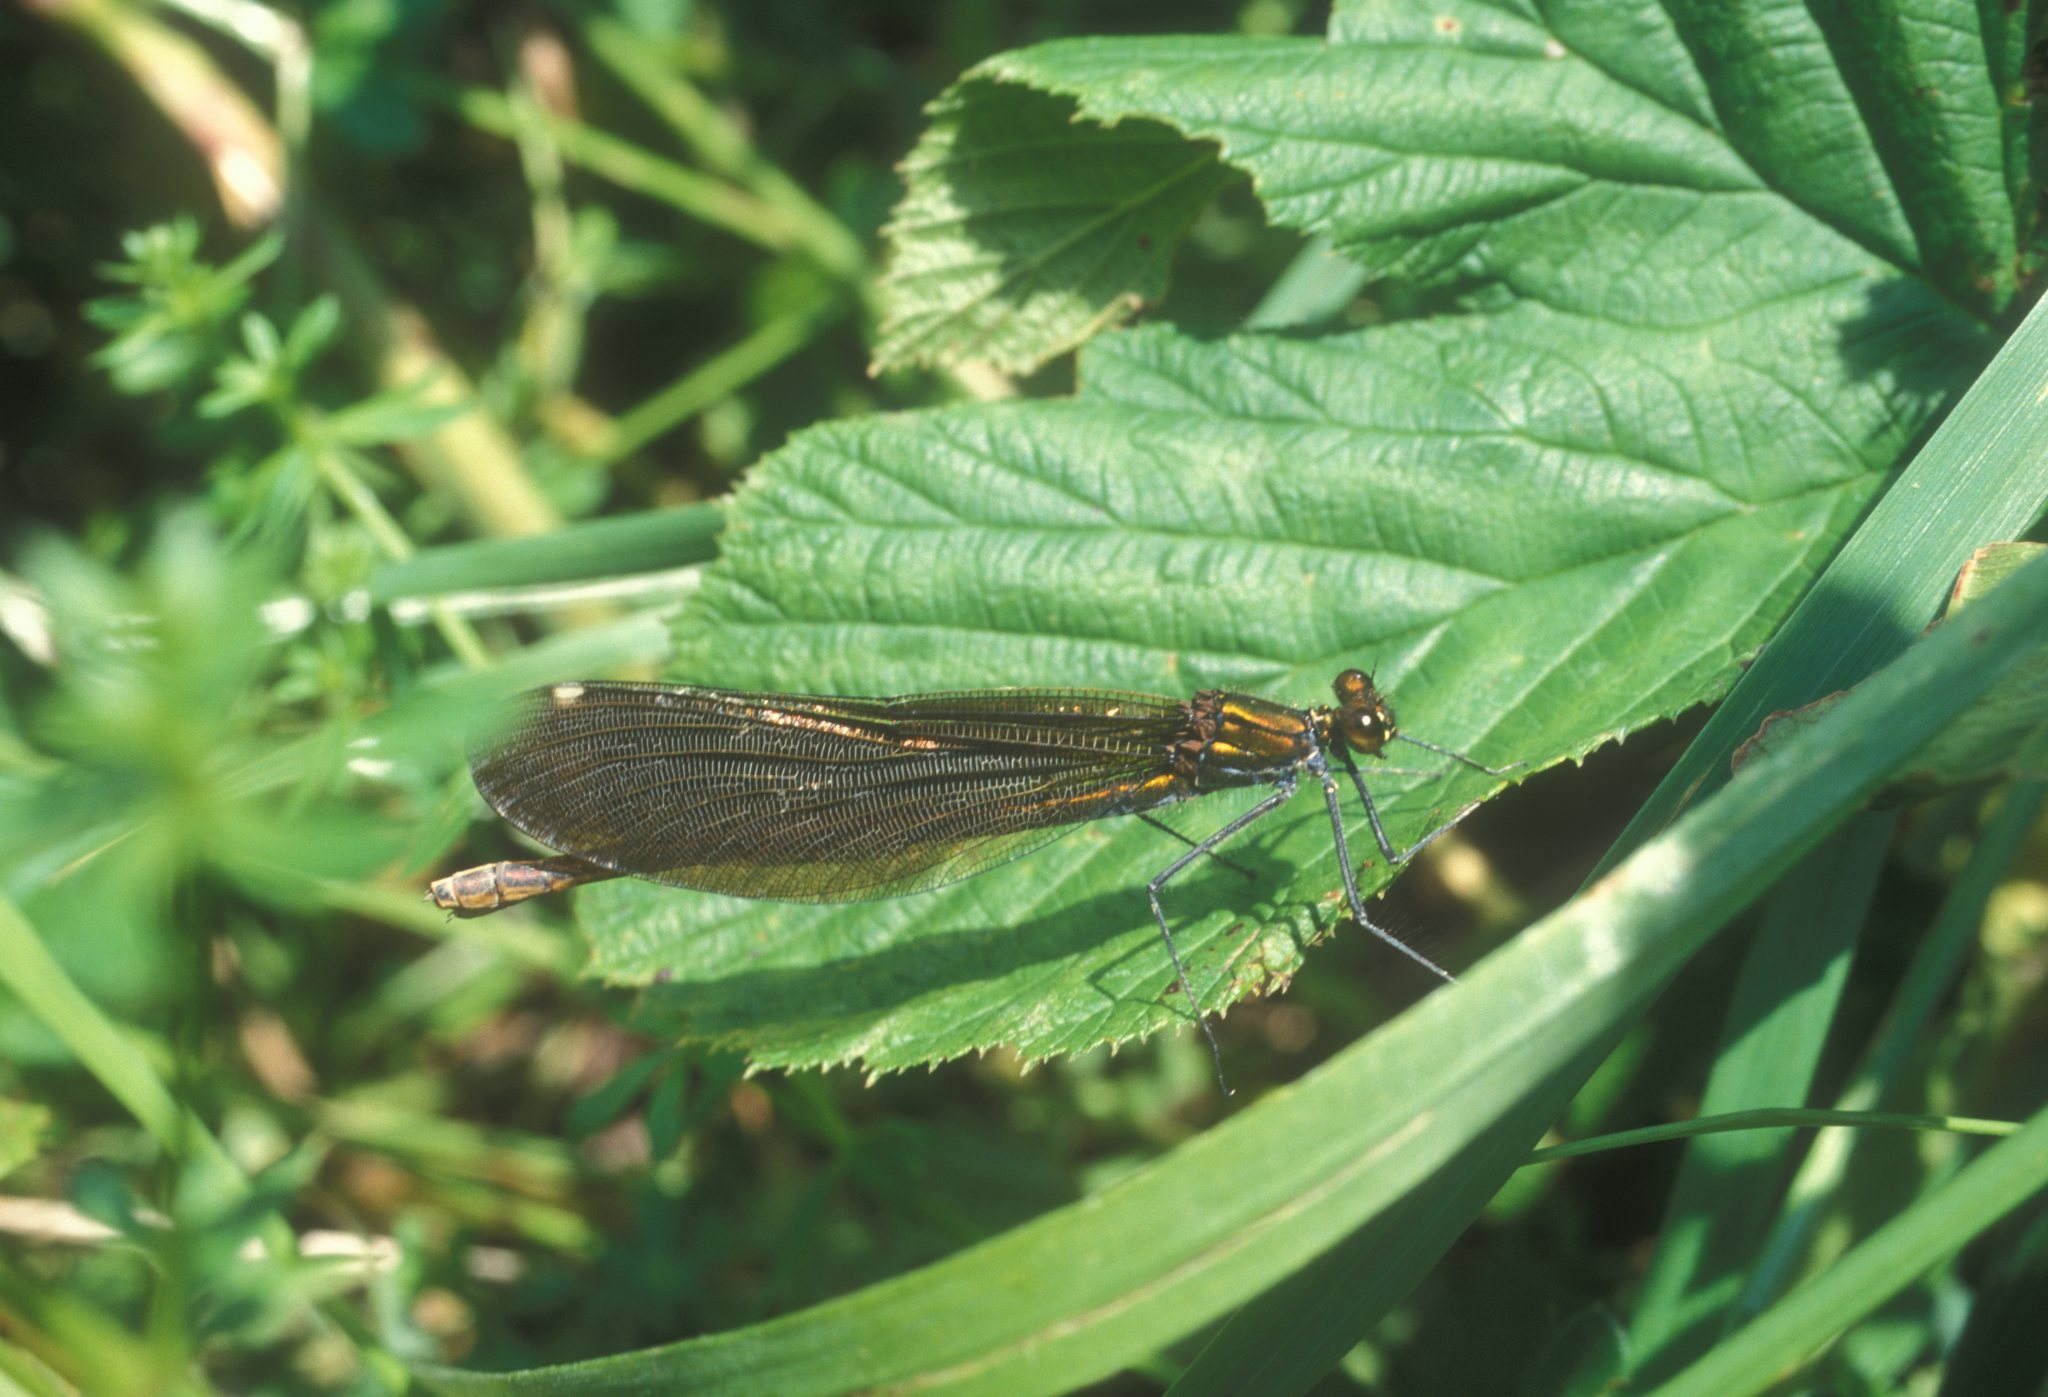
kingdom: Animalia
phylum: Arthropoda
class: Insecta
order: Odonata
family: Calopterygidae
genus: Calopteryx
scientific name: Calopteryx virgo
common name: Beautiful demoiselle
